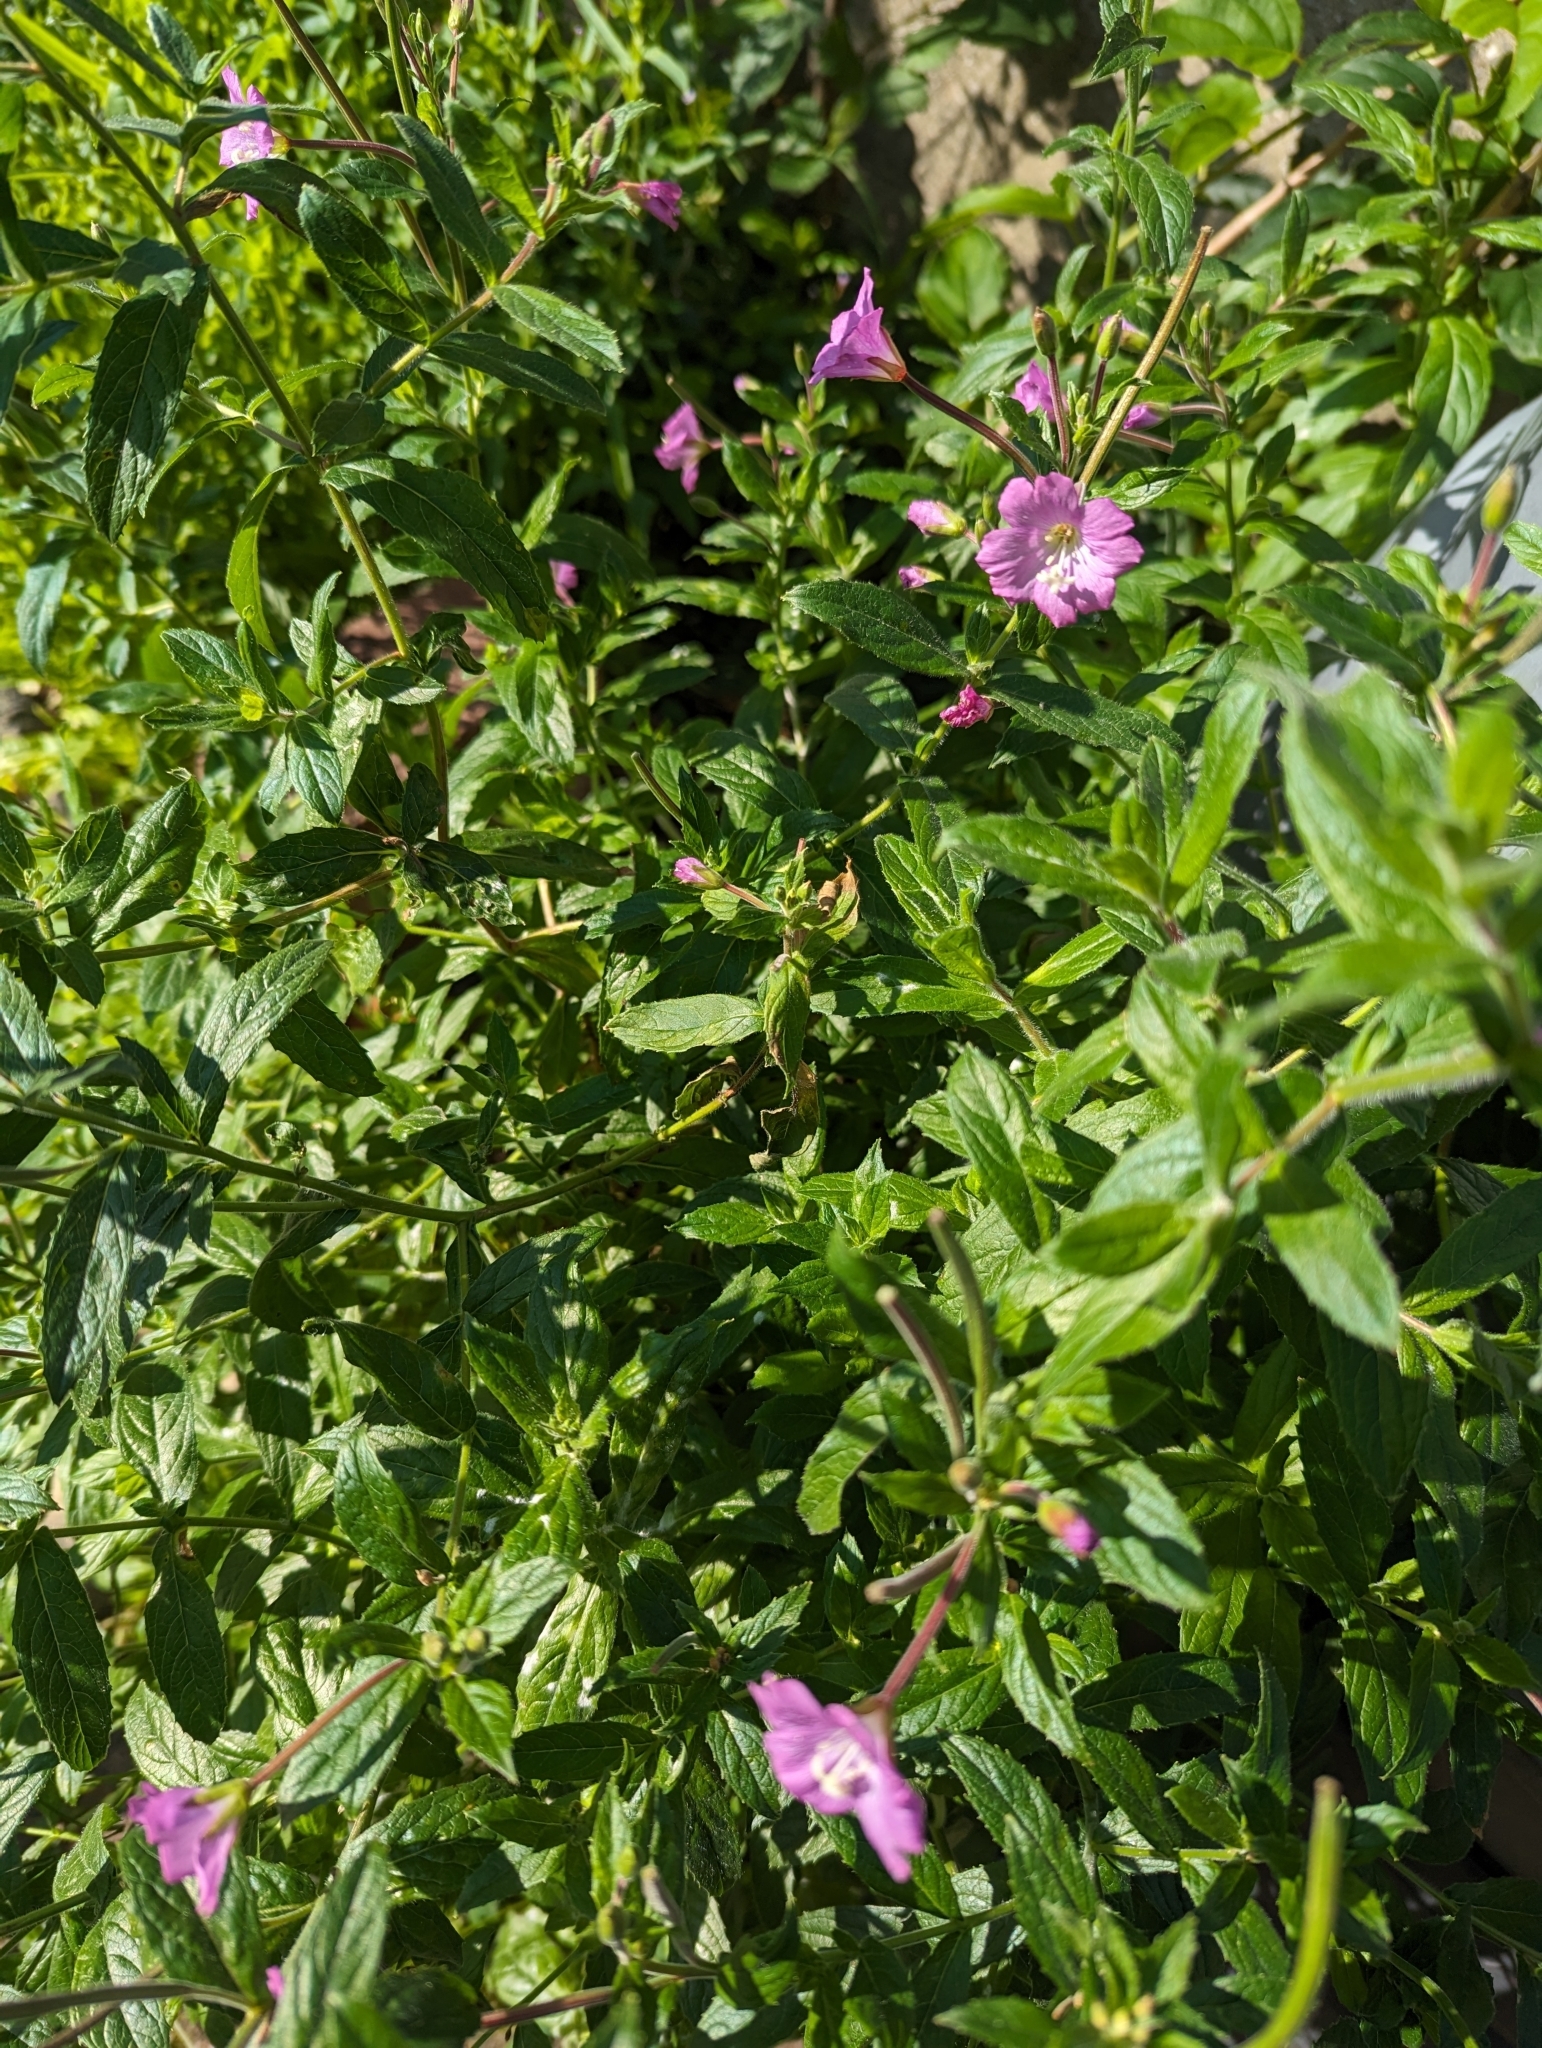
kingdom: Plantae
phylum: Tracheophyta
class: Magnoliopsida
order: Myrtales
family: Onagraceae
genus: Epilobium
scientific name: Epilobium hirsutum
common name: Great willowherb
